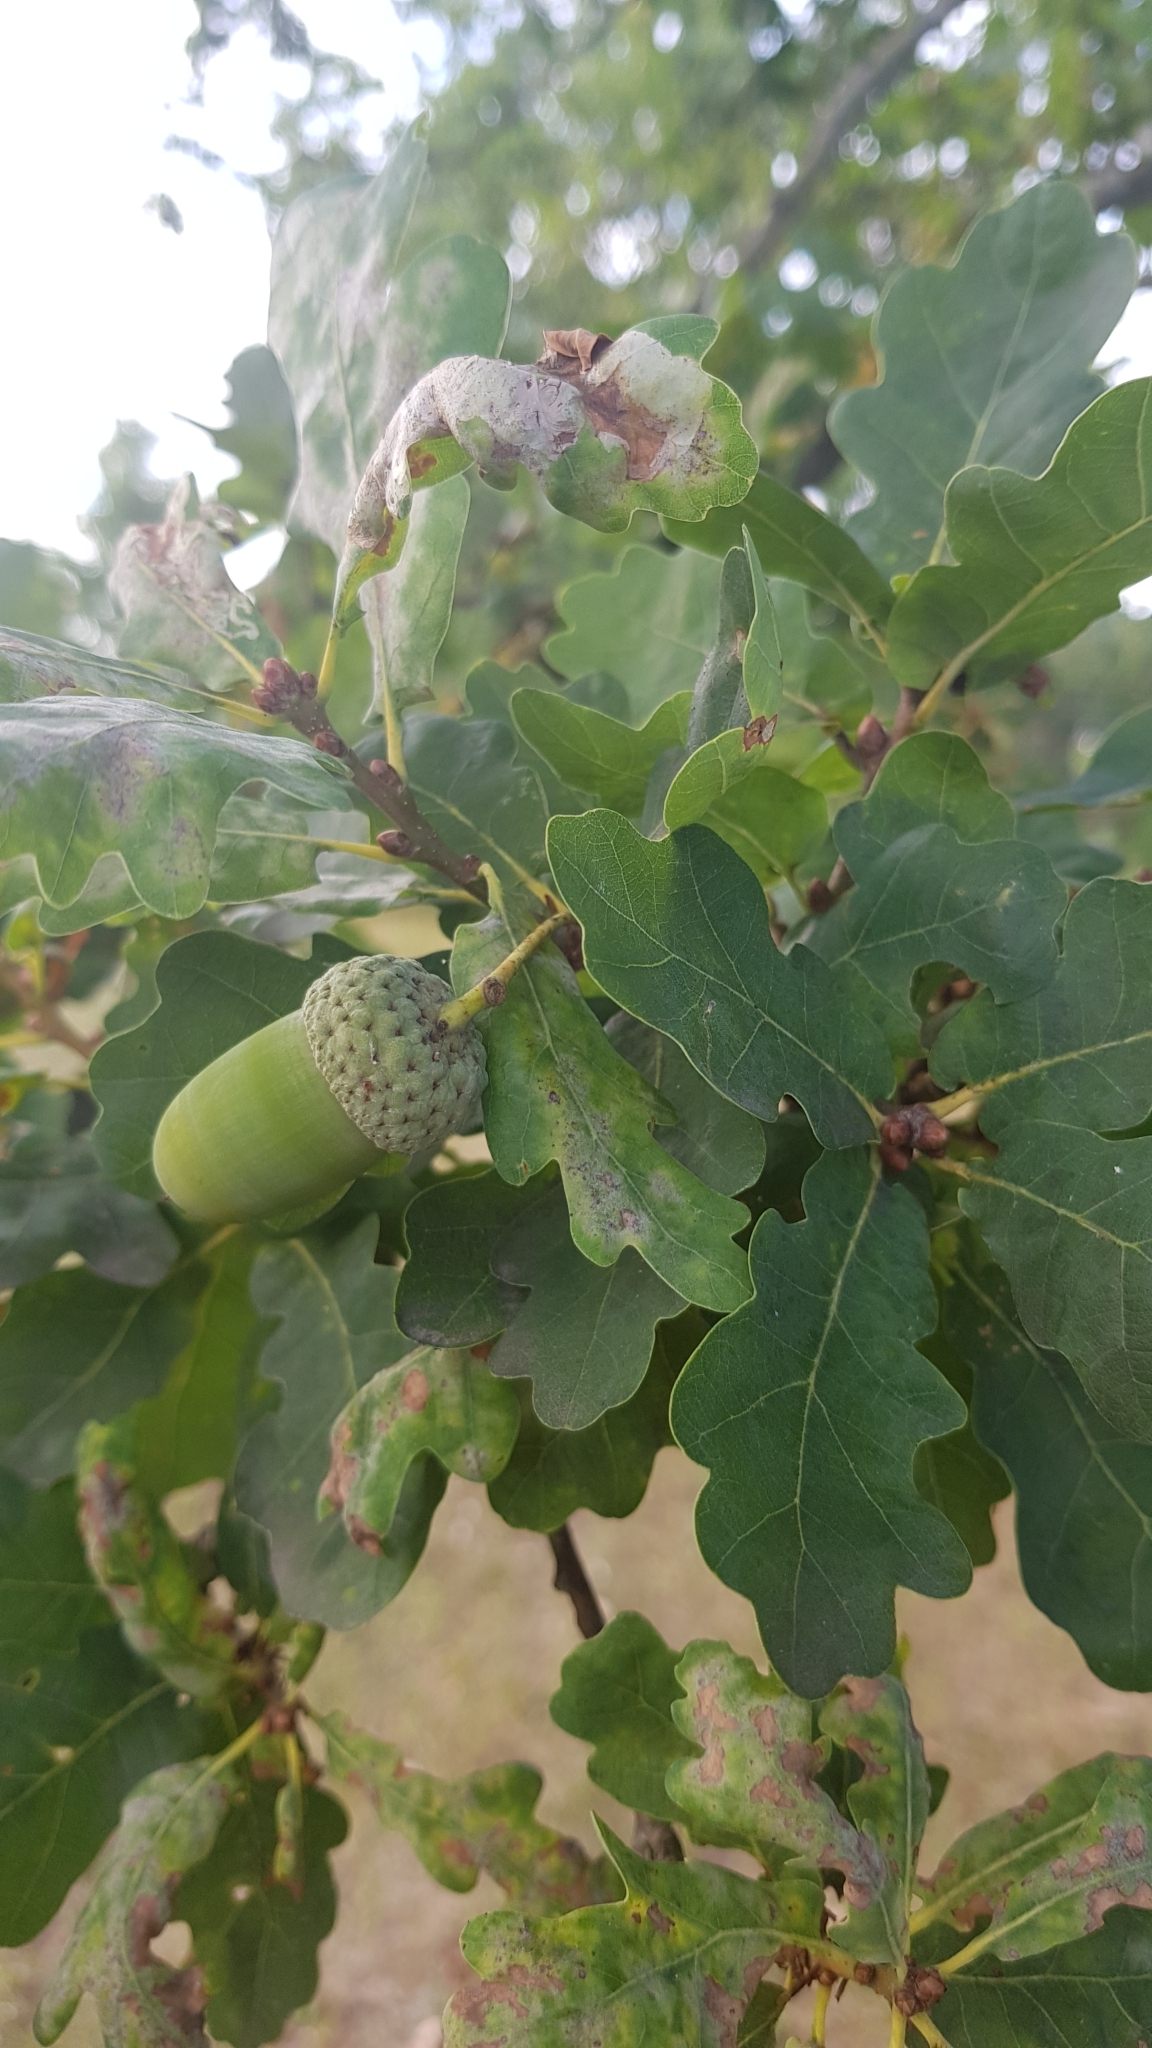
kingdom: Plantae
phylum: Tracheophyta
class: Magnoliopsida
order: Fagales
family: Fagaceae
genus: Quercus
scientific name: Quercus robur
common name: Pedunculate oak
